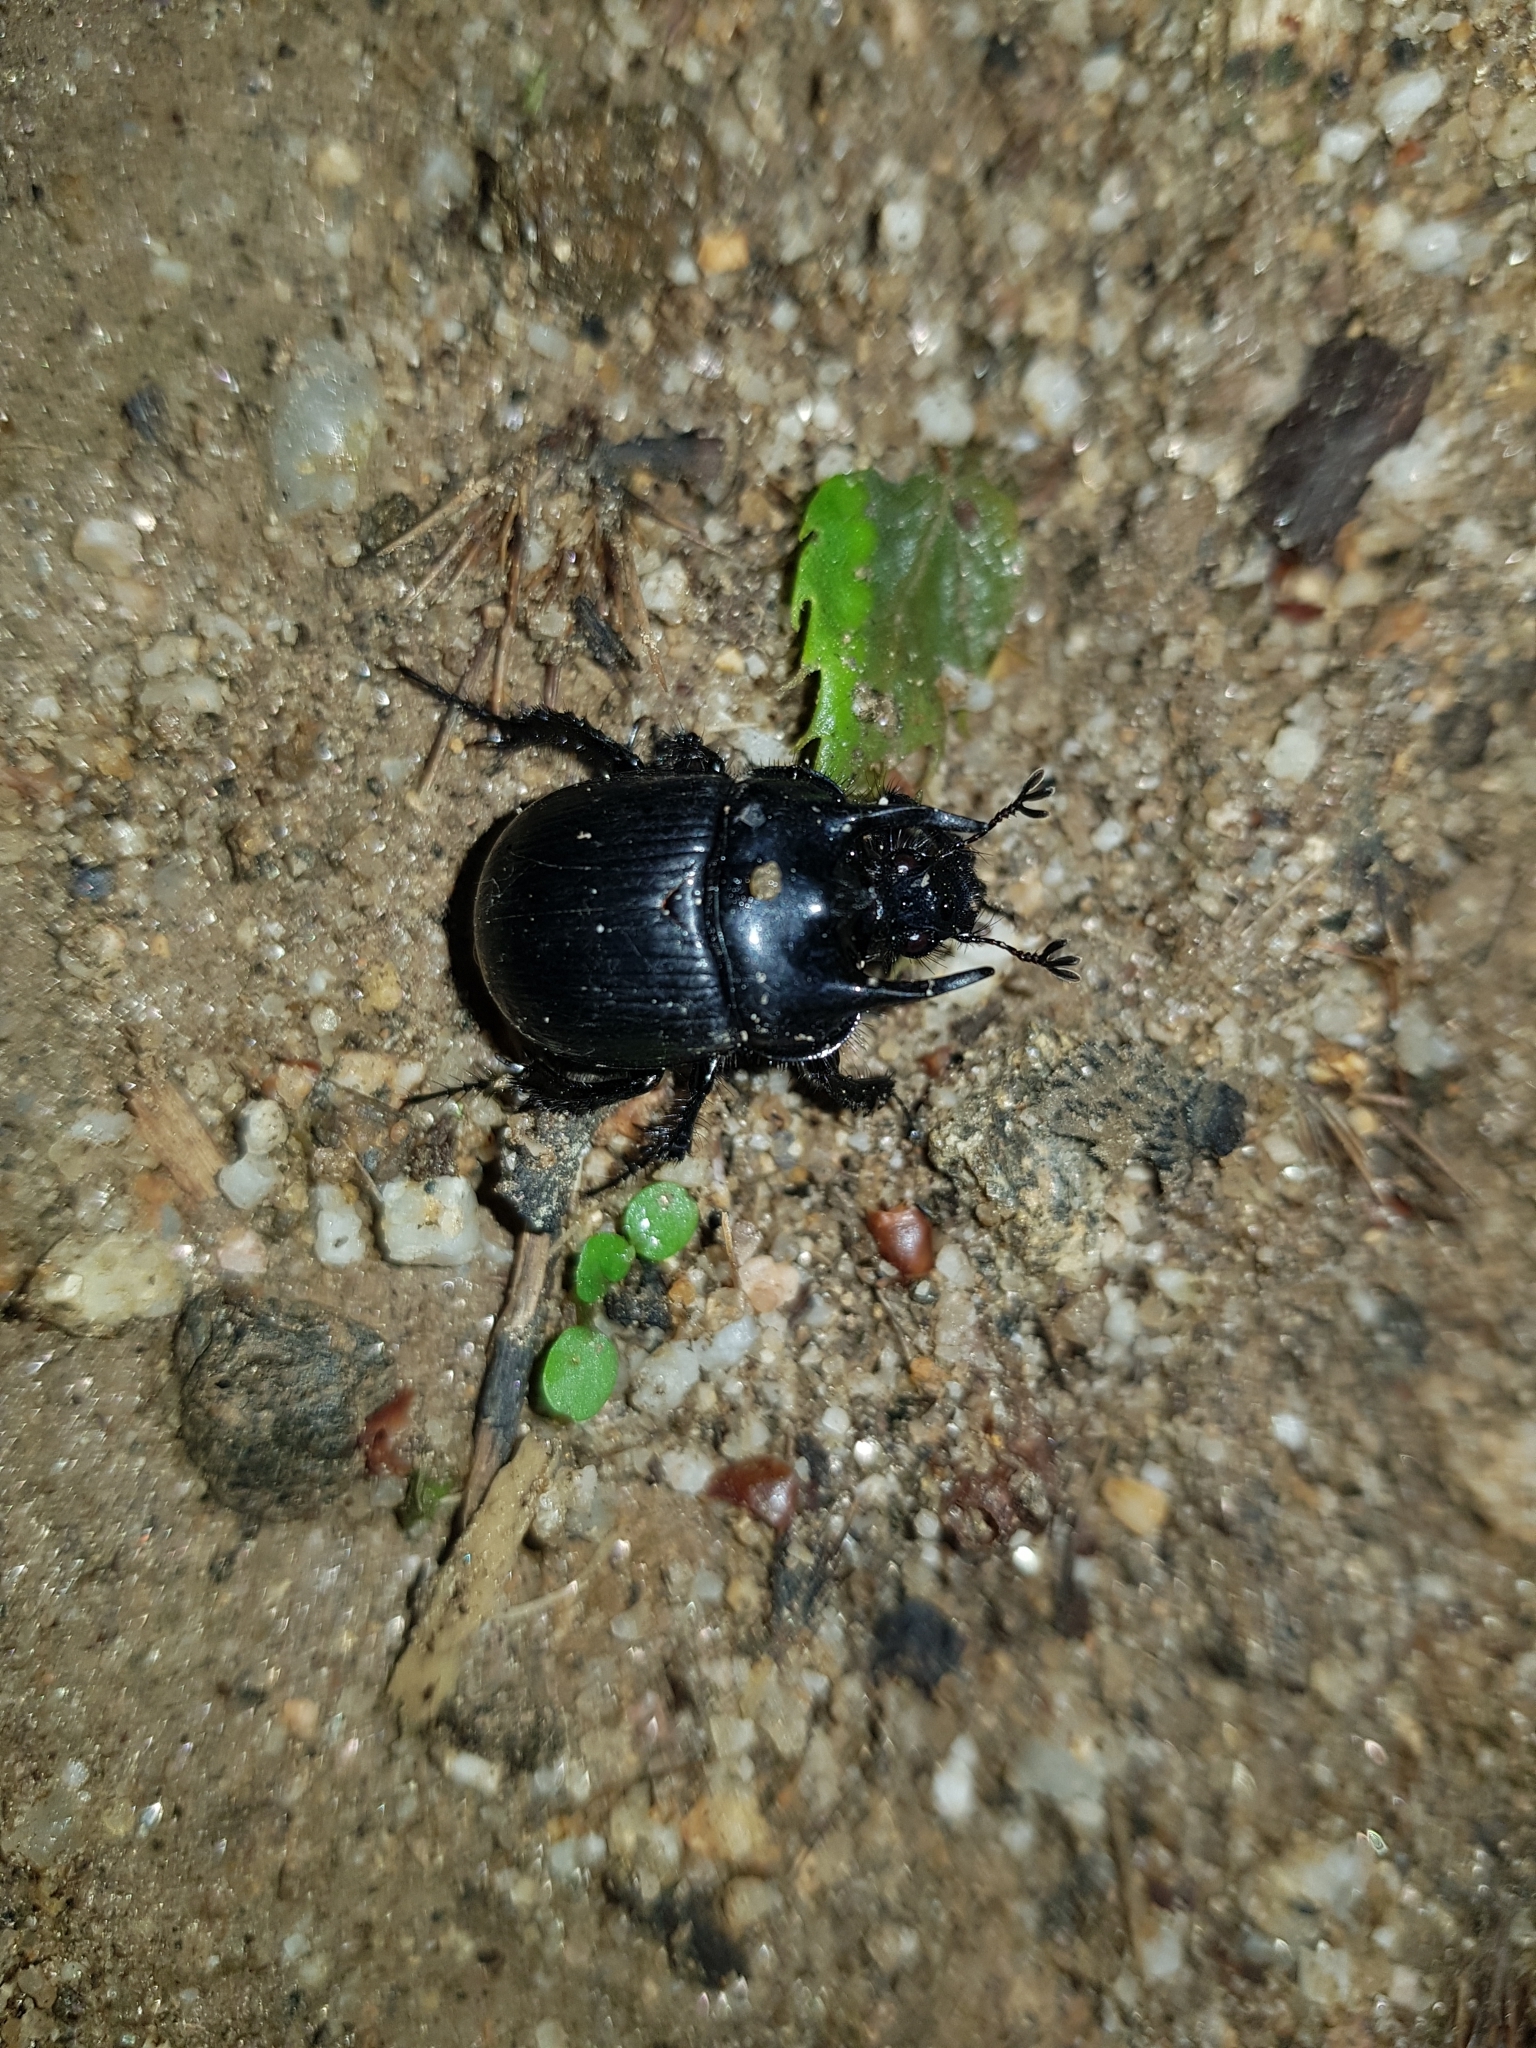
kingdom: Animalia
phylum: Arthropoda
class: Insecta
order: Coleoptera
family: Geotrupidae
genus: Typhaeus
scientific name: Typhaeus typhoeus
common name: Minotaur beetle
